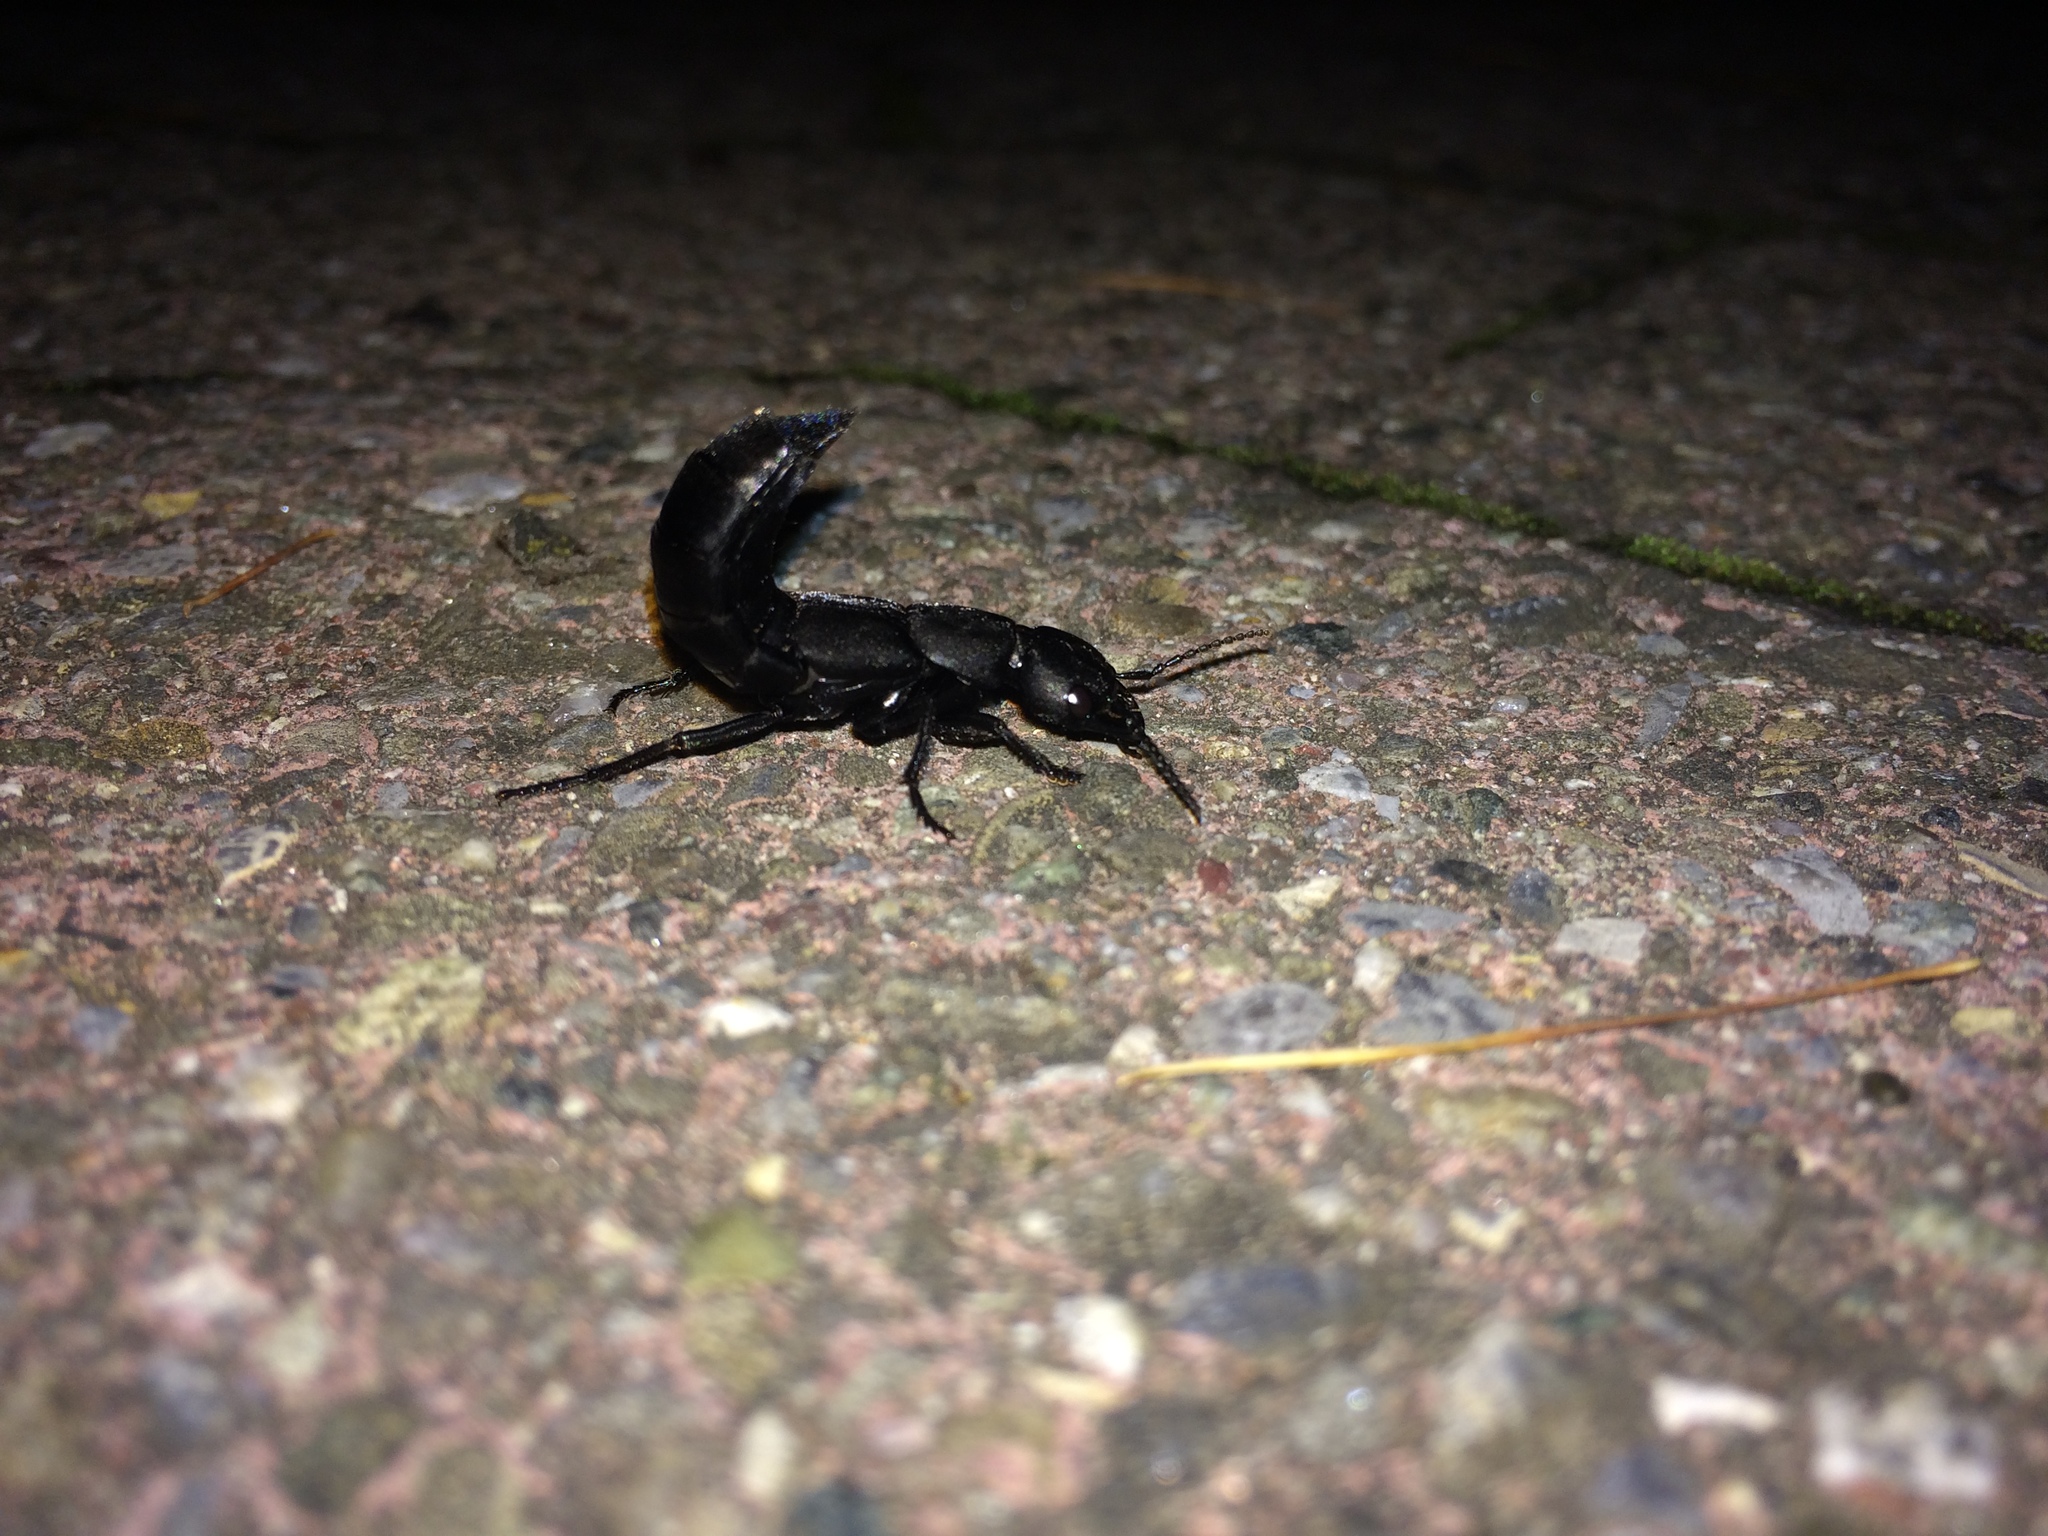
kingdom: Animalia
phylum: Arthropoda
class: Insecta
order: Coleoptera
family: Staphylinidae
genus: Ocypus
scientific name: Ocypus olens
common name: Devil's coach-horse
